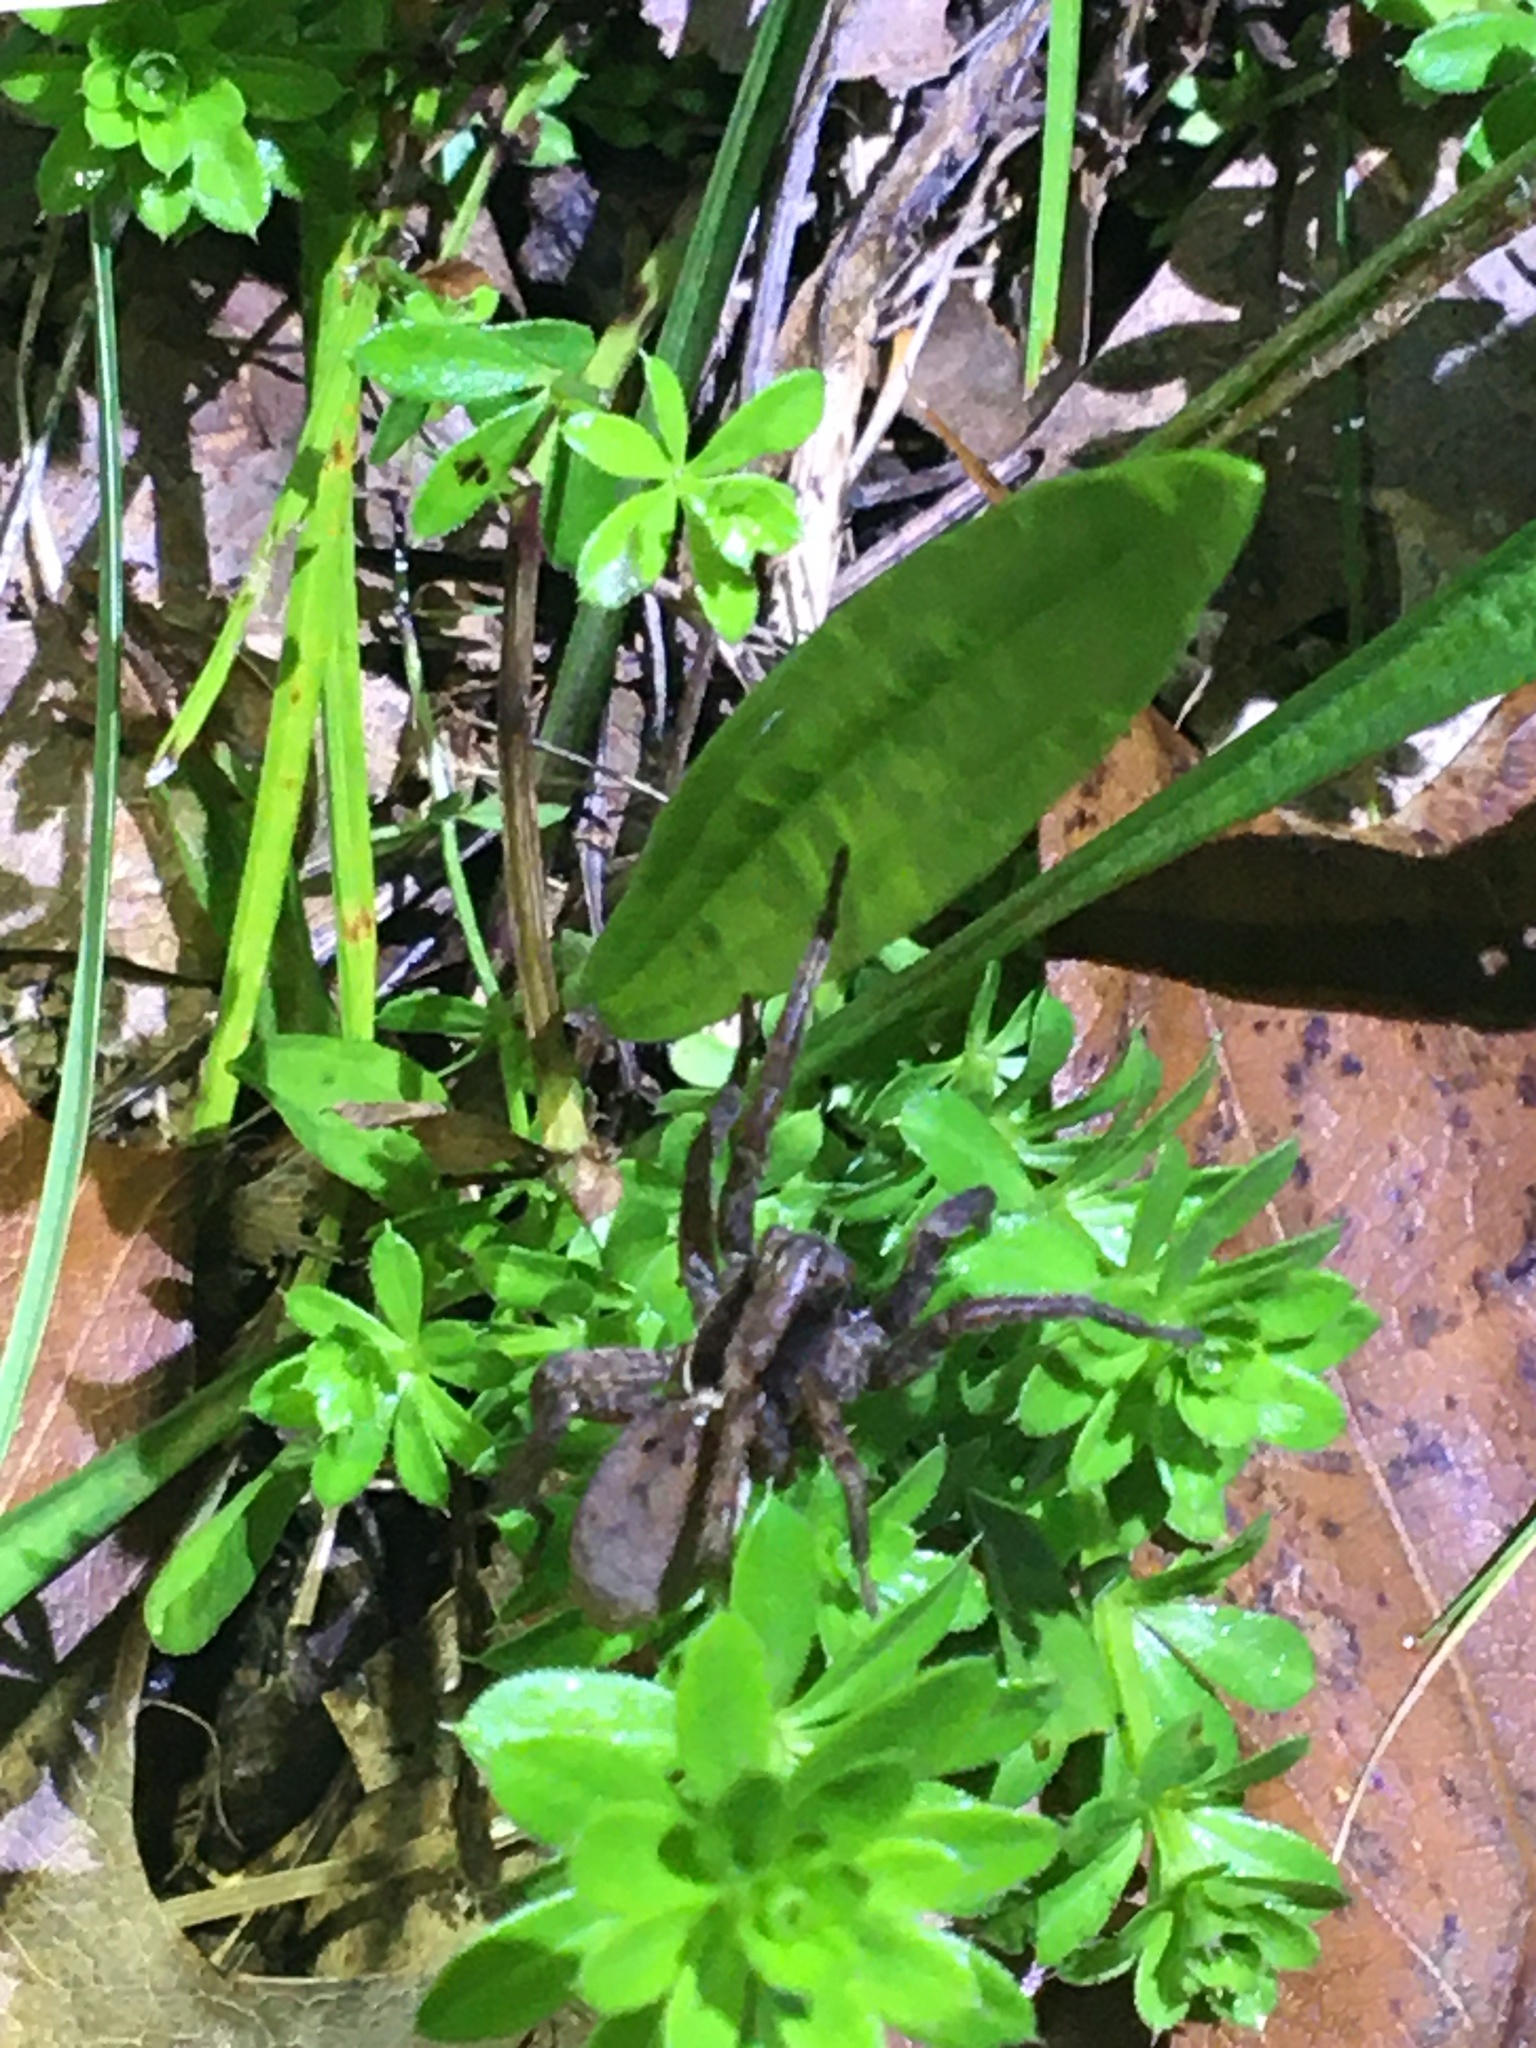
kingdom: Animalia
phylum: Arthropoda
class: Arachnida
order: Araneae
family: Lycosidae
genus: Hogna
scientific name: Hogna frondicola
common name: Forest wolf spider
